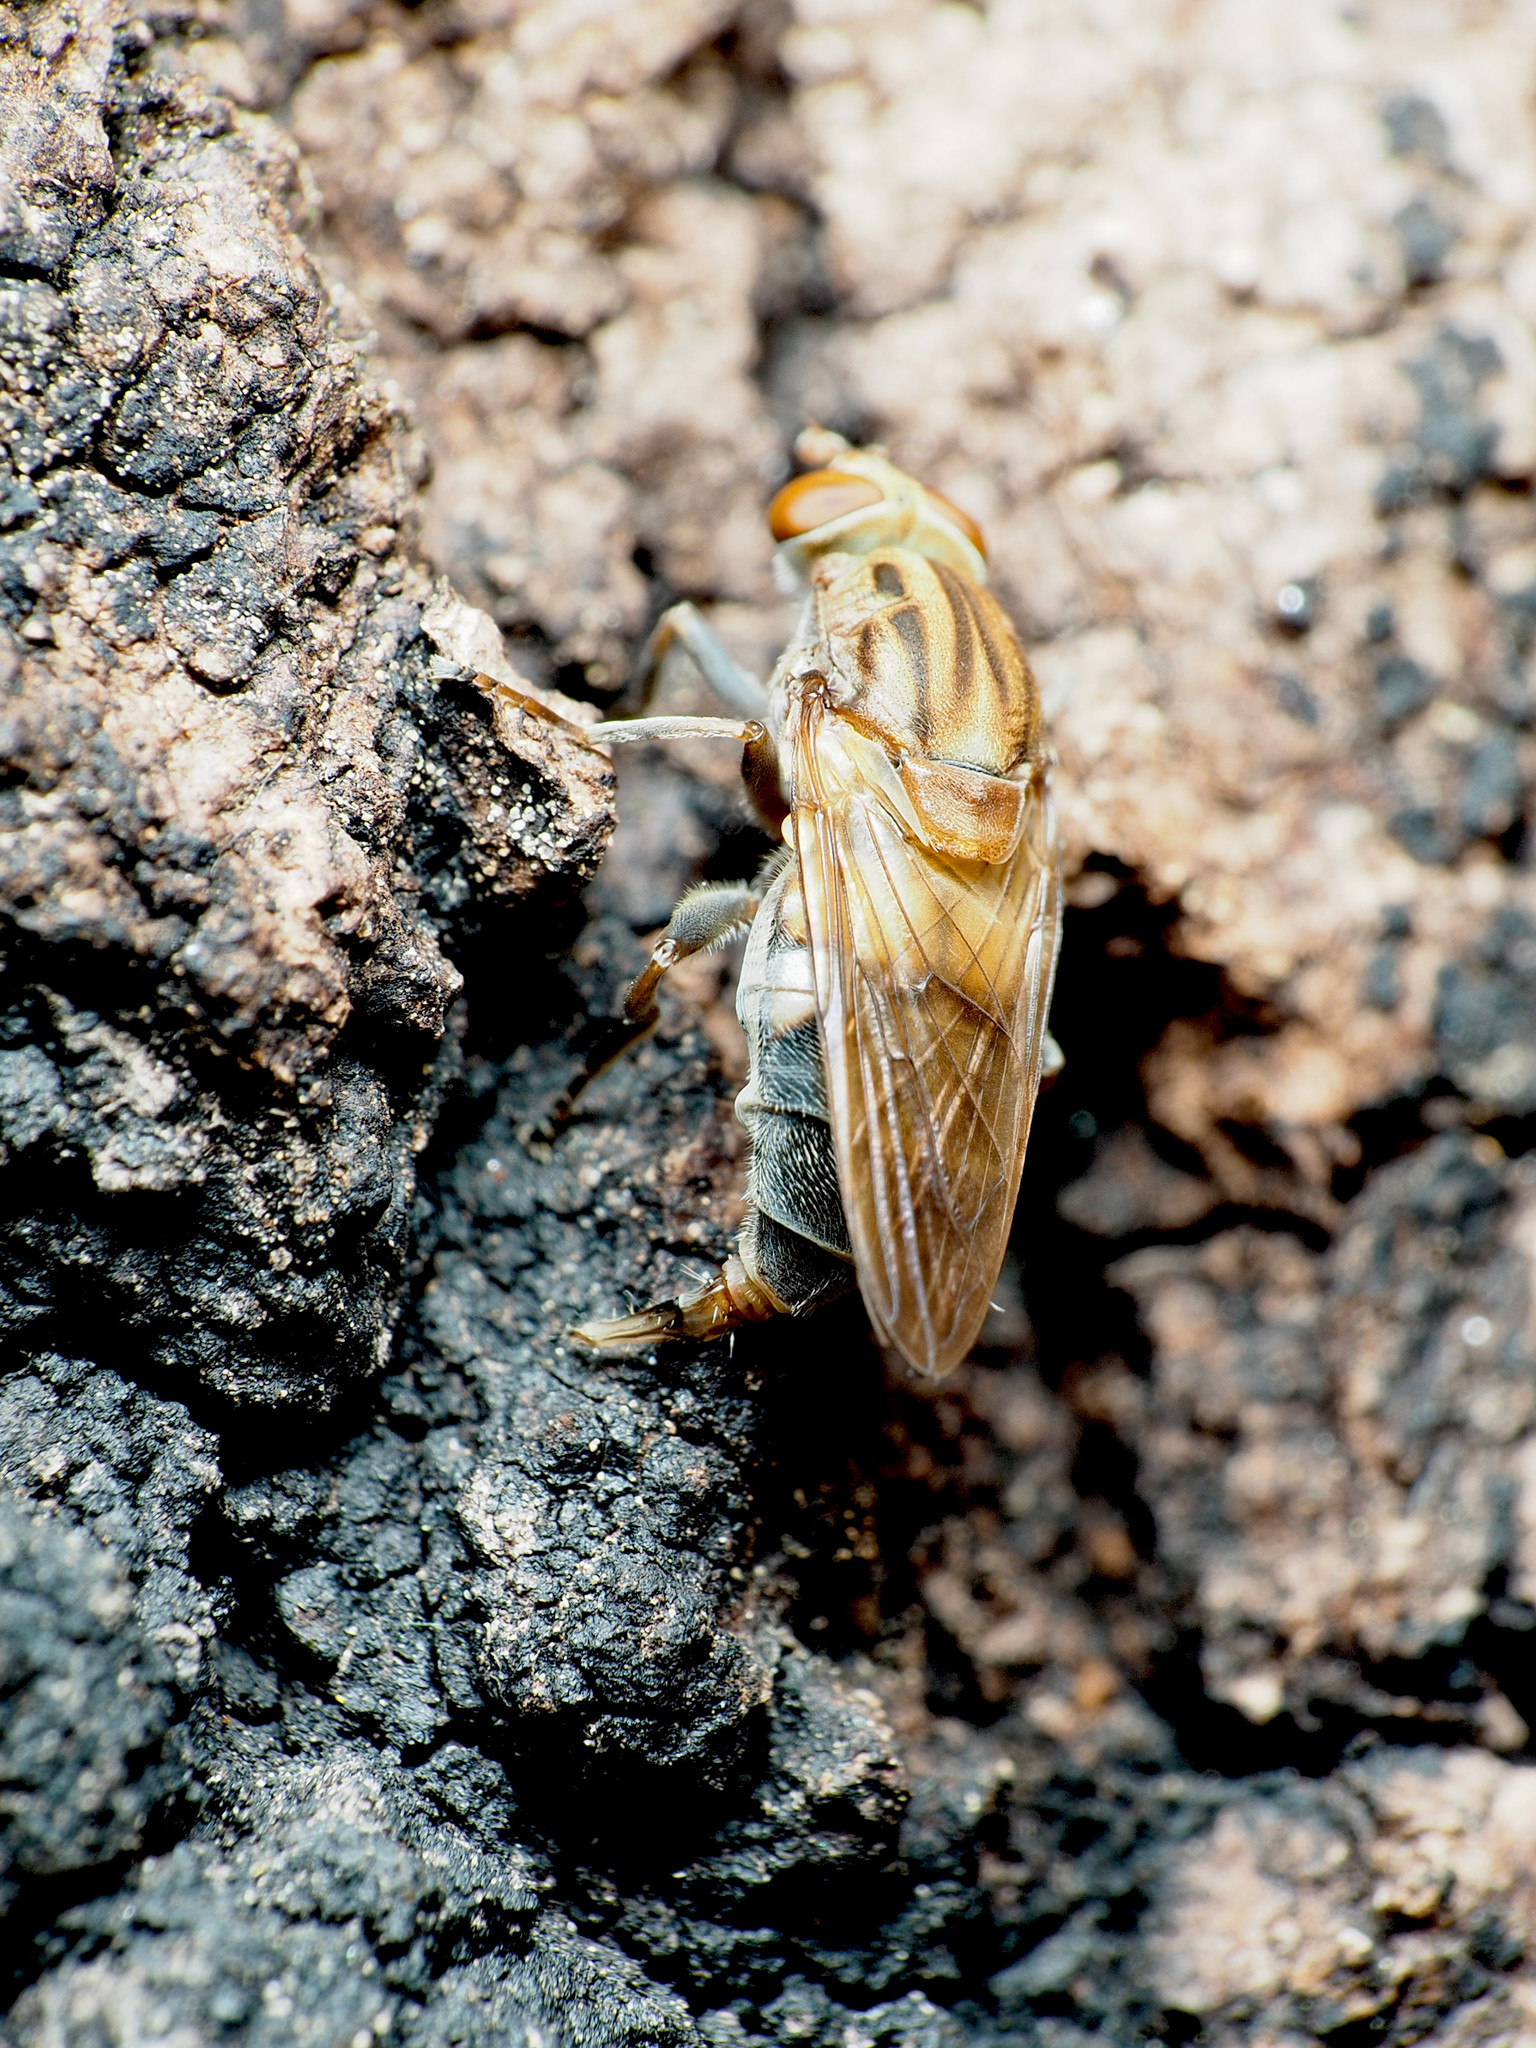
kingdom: Animalia
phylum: Arthropoda
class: Insecta
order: Diptera
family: Syrphidae
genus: Brachyopa
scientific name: Brachyopa vacua
